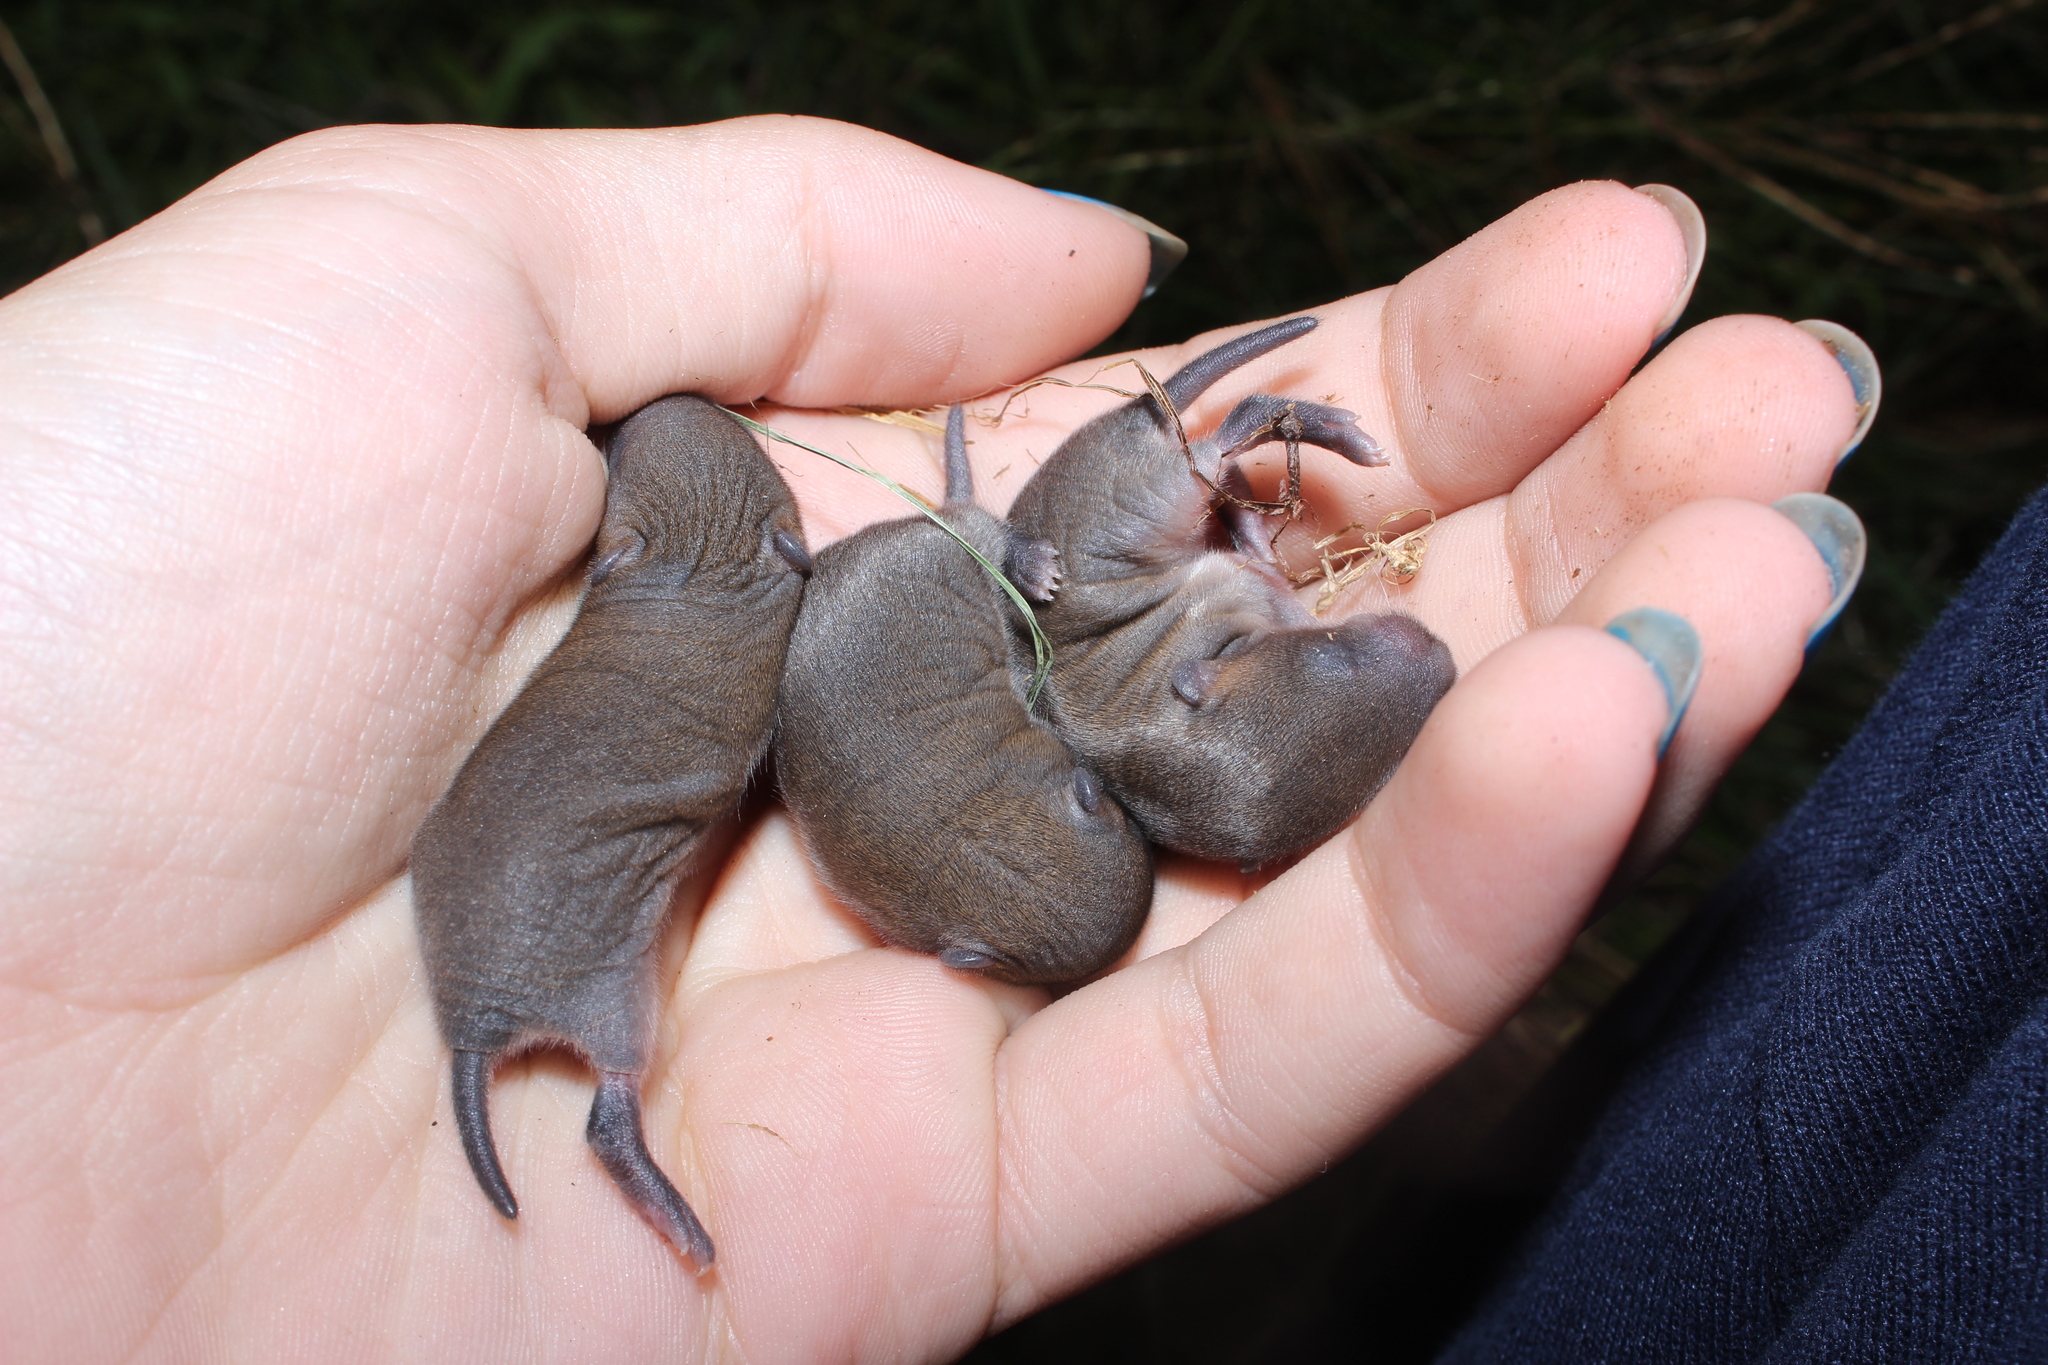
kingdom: Animalia
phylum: Chordata
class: Mammalia
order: Rodentia
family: Cricetidae
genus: Microtus
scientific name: Microtus pennsylvanicus
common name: Meadow vole
